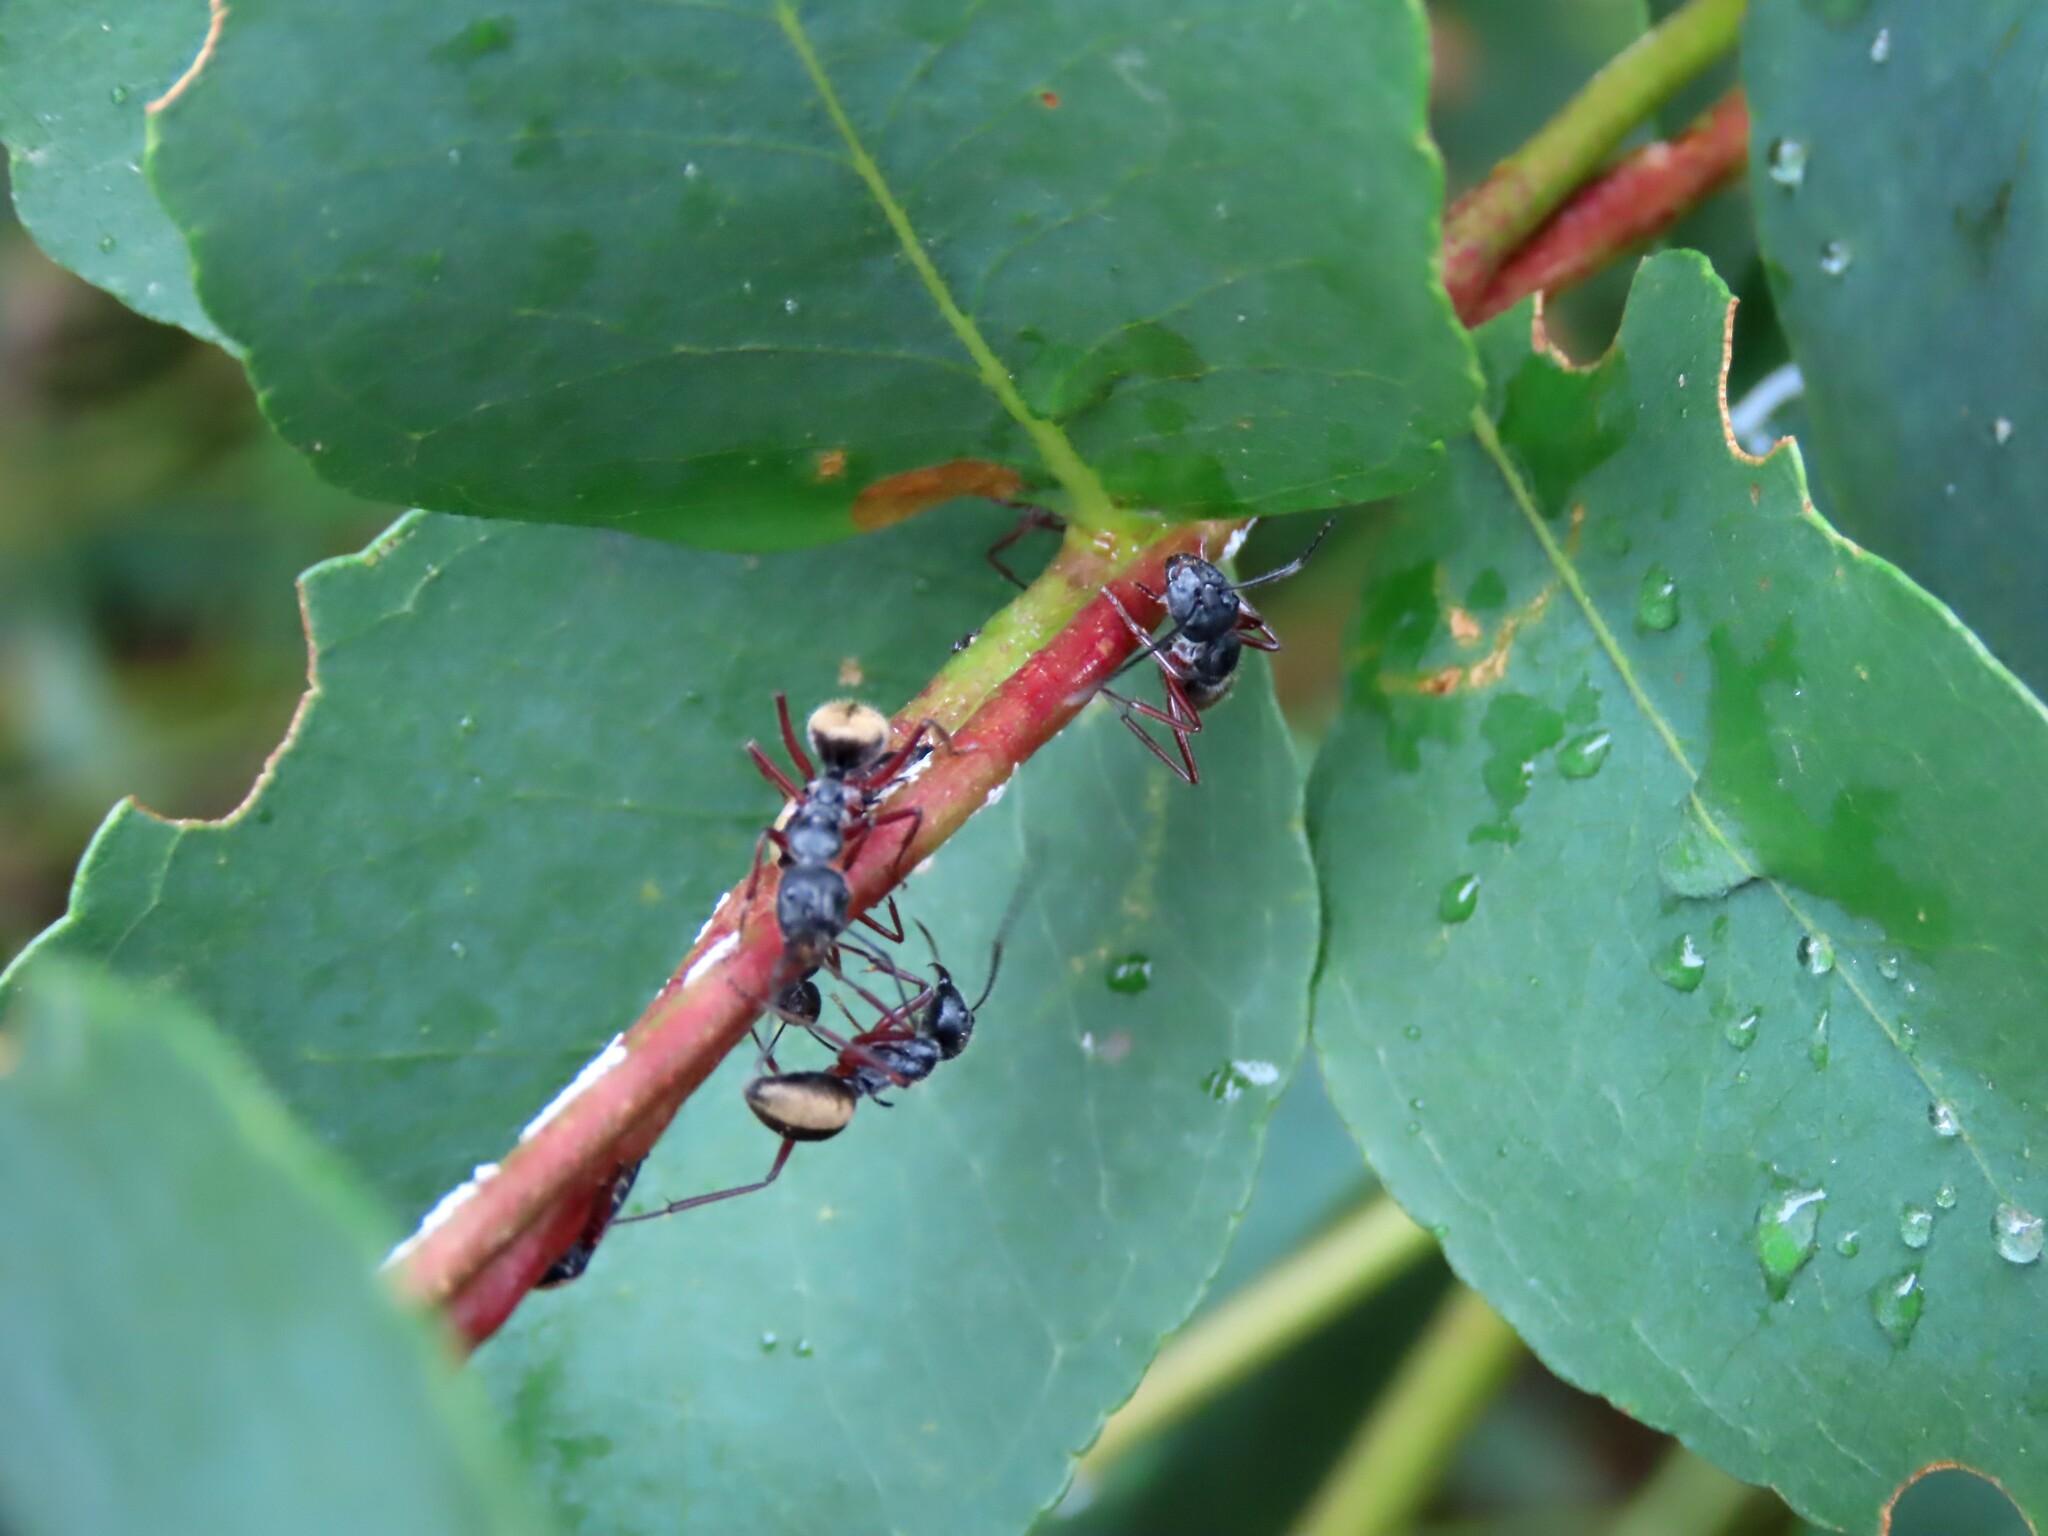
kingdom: Animalia
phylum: Arthropoda
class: Insecta
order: Hymenoptera
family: Formicidae
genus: Camponotus
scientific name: Camponotus suffusus
